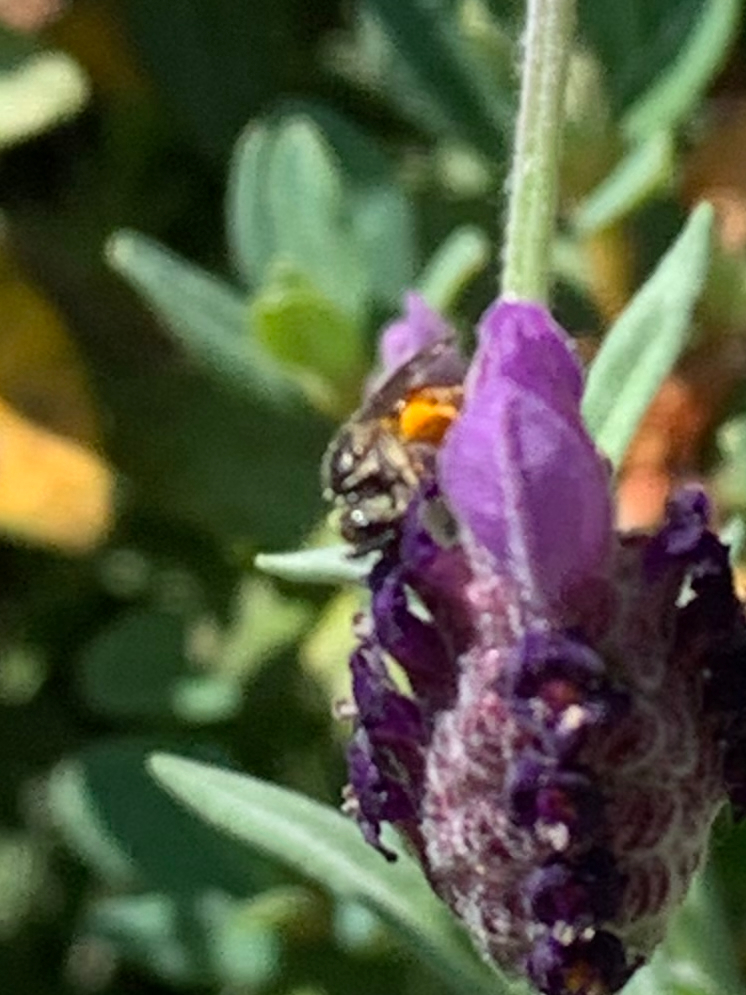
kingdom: Animalia
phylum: Arthropoda
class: Insecta
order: Hymenoptera
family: Halictidae
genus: Lasioglossum
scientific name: Lasioglossum ovaliceps
